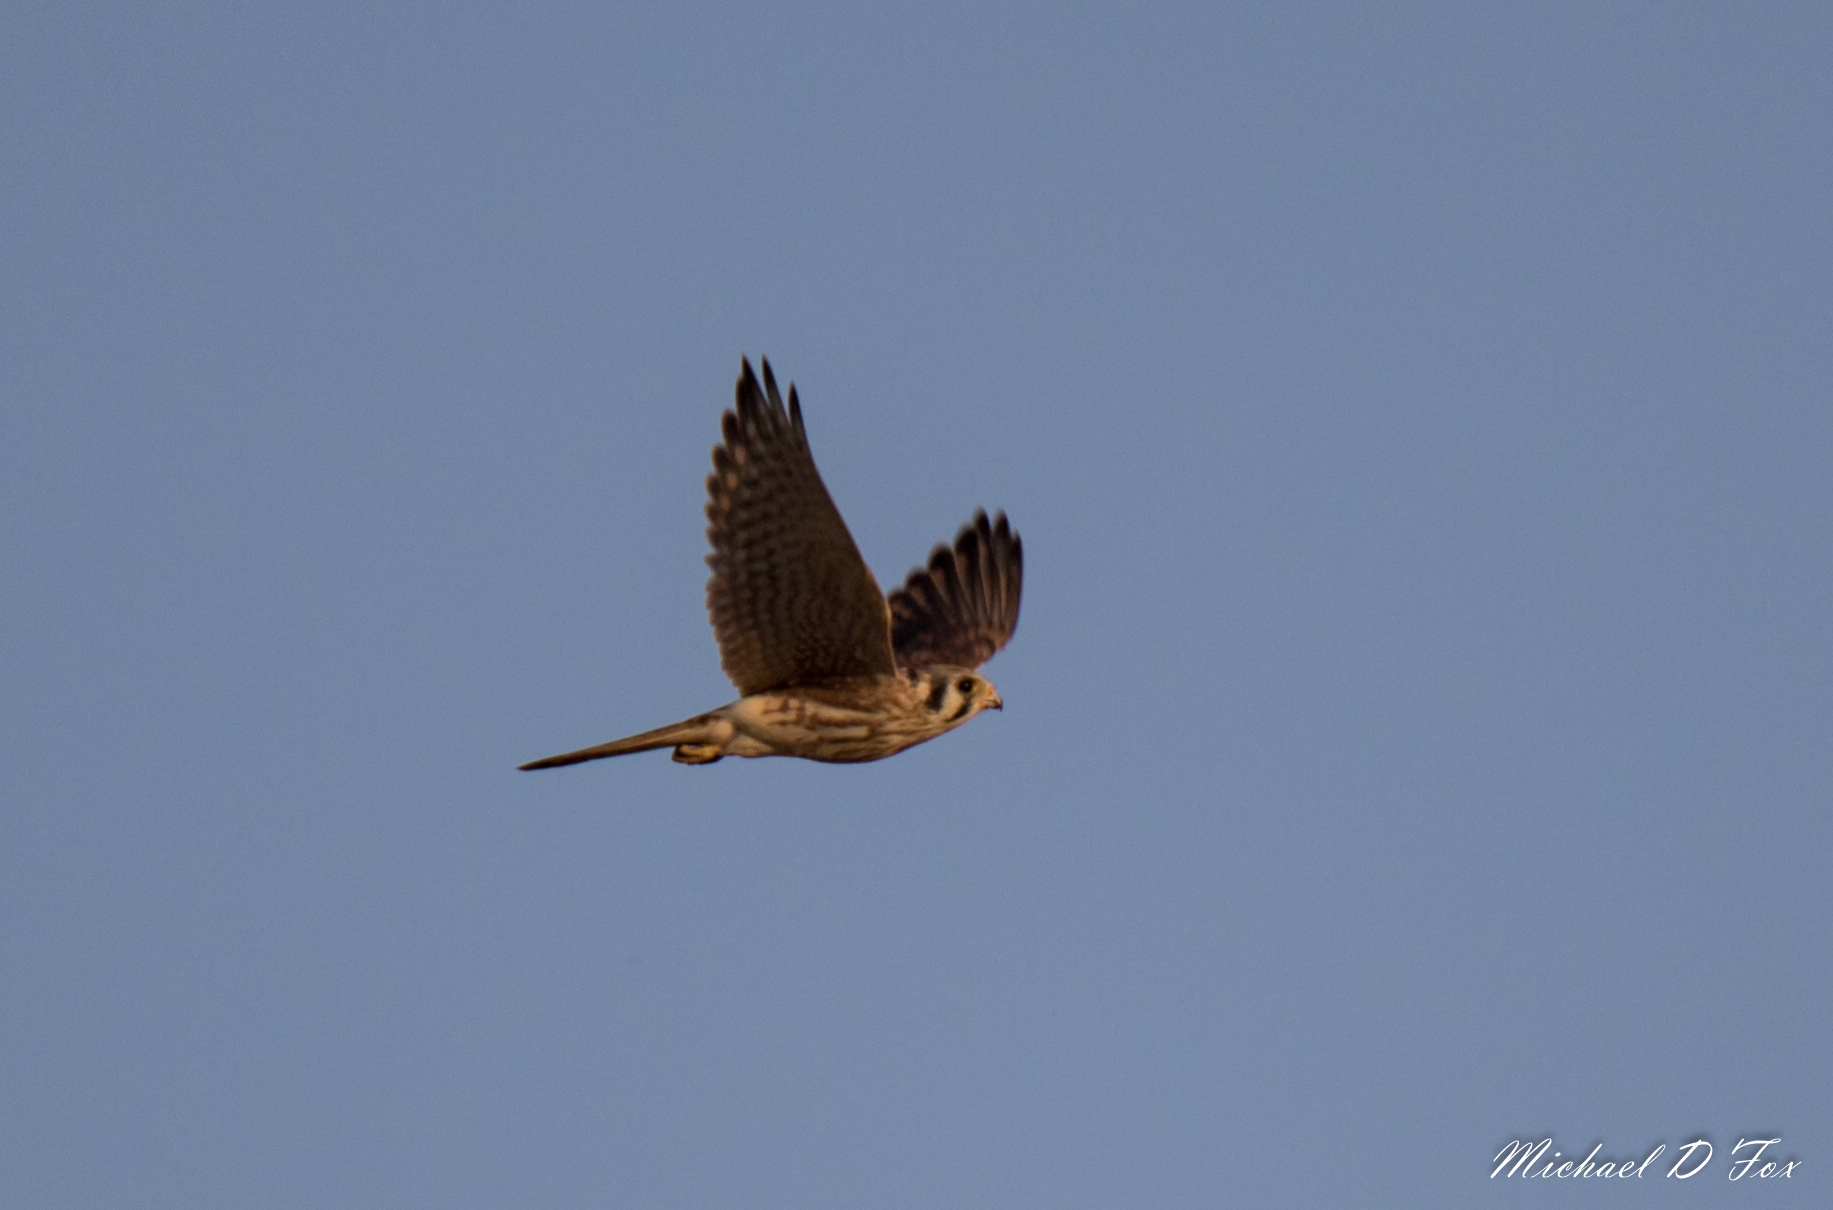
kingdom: Animalia
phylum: Chordata
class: Aves
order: Falconiformes
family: Falconidae
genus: Falco
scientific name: Falco sparverius
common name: American kestrel
